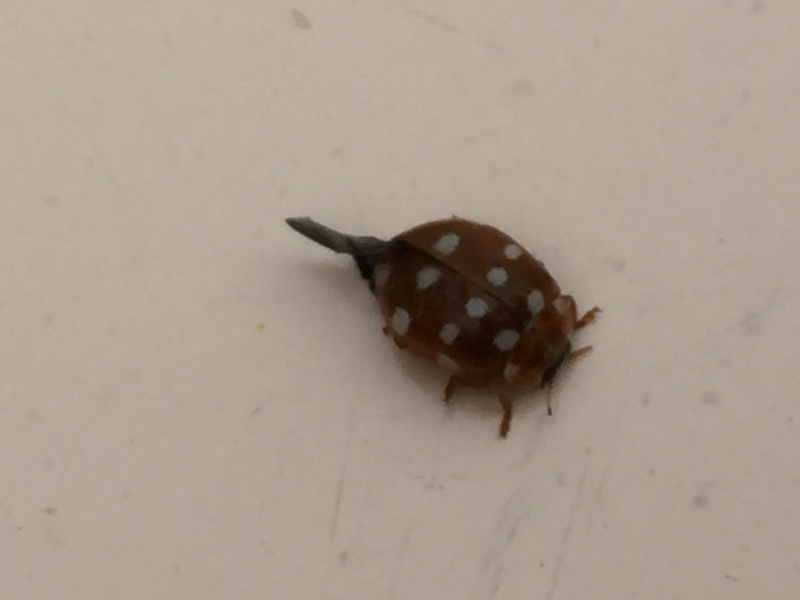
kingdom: Animalia
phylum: Arthropoda
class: Insecta
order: Coleoptera
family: Coccinellidae
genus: Calvia
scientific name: Calvia quatuordecimguttata
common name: Cream-spot ladybird
